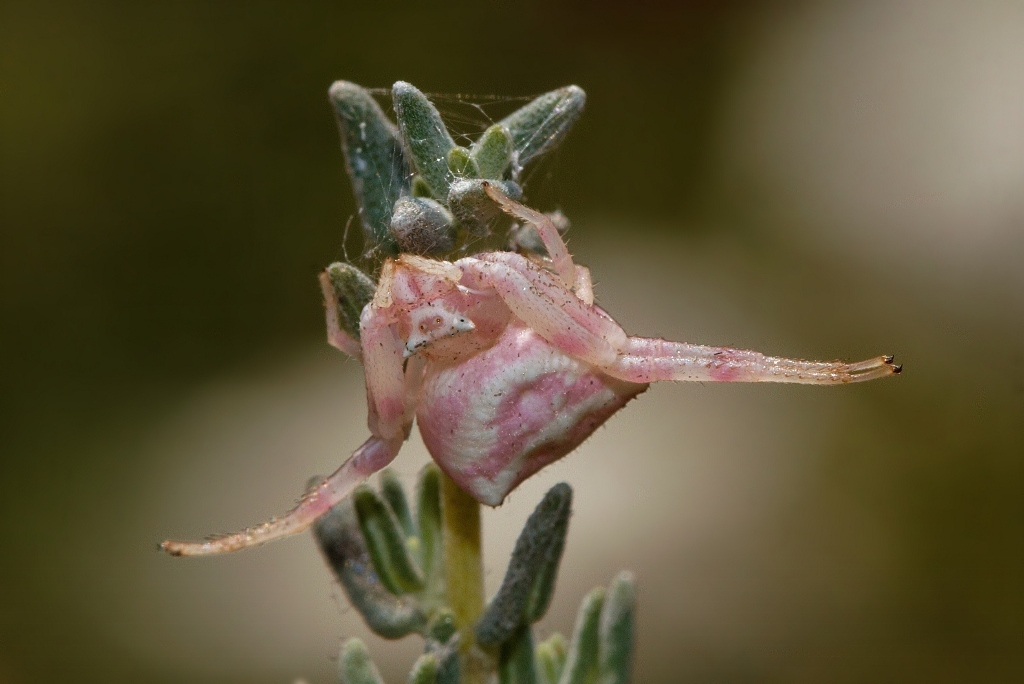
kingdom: Animalia
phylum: Arthropoda
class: Arachnida
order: Araneae
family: Thomisidae
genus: Thomisus
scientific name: Thomisus citrinellus
